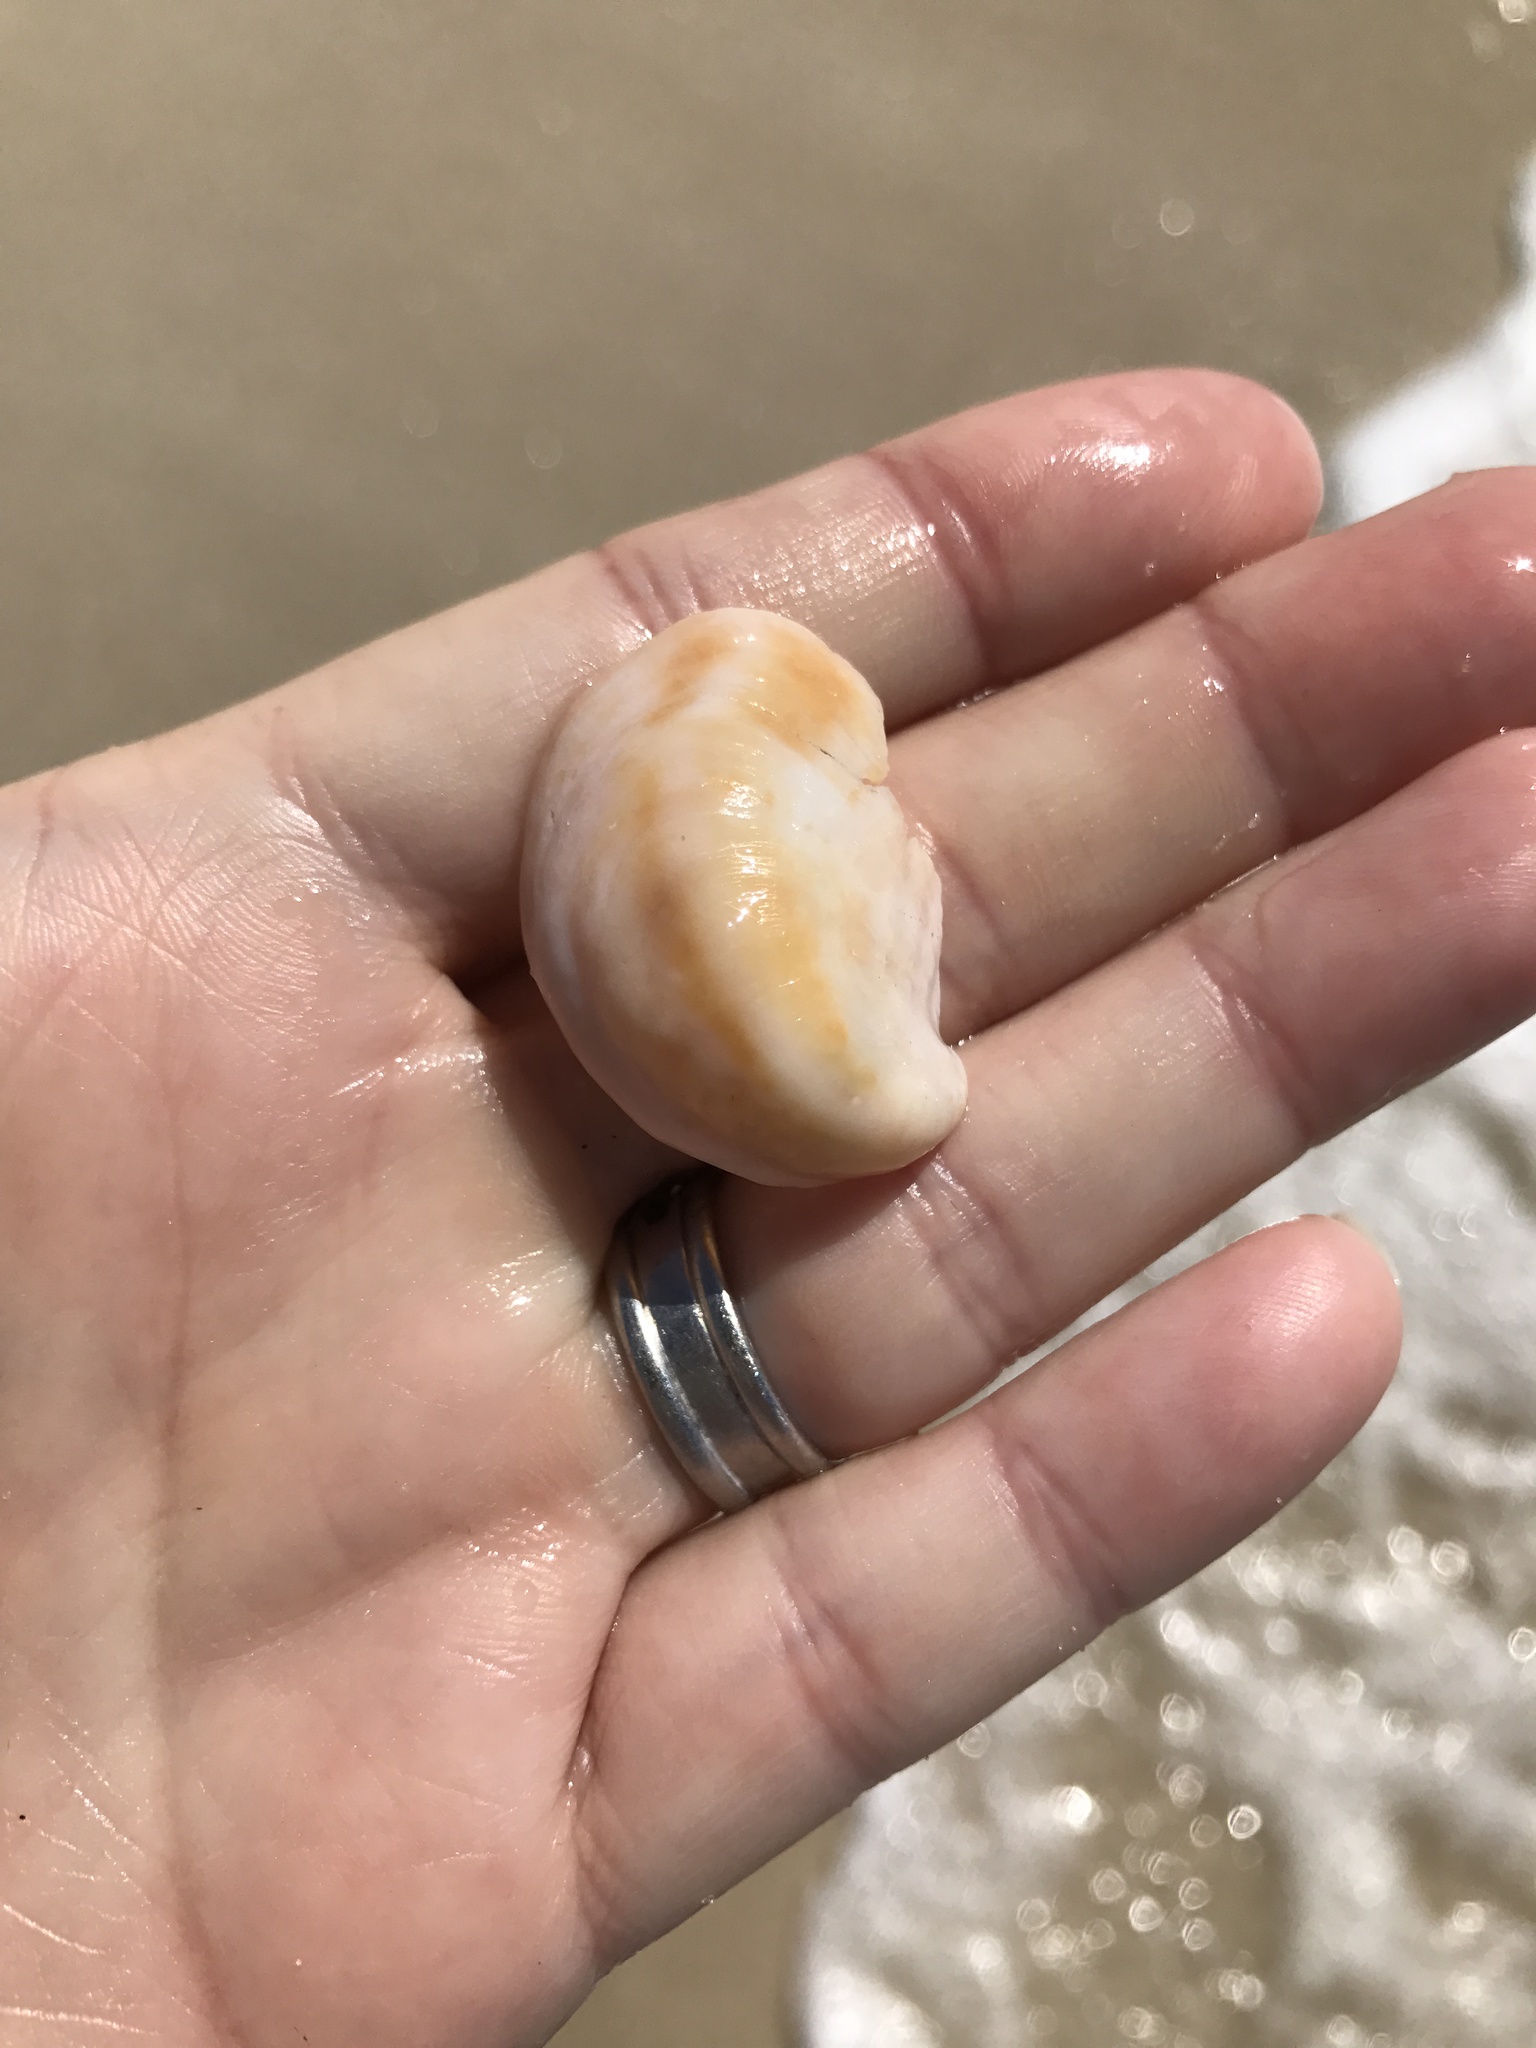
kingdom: Animalia
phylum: Mollusca
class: Gastropoda
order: Littorinimorpha
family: Calyptraeidae
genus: Crepidula
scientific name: Crepidula fornicata
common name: Slipper limpet
